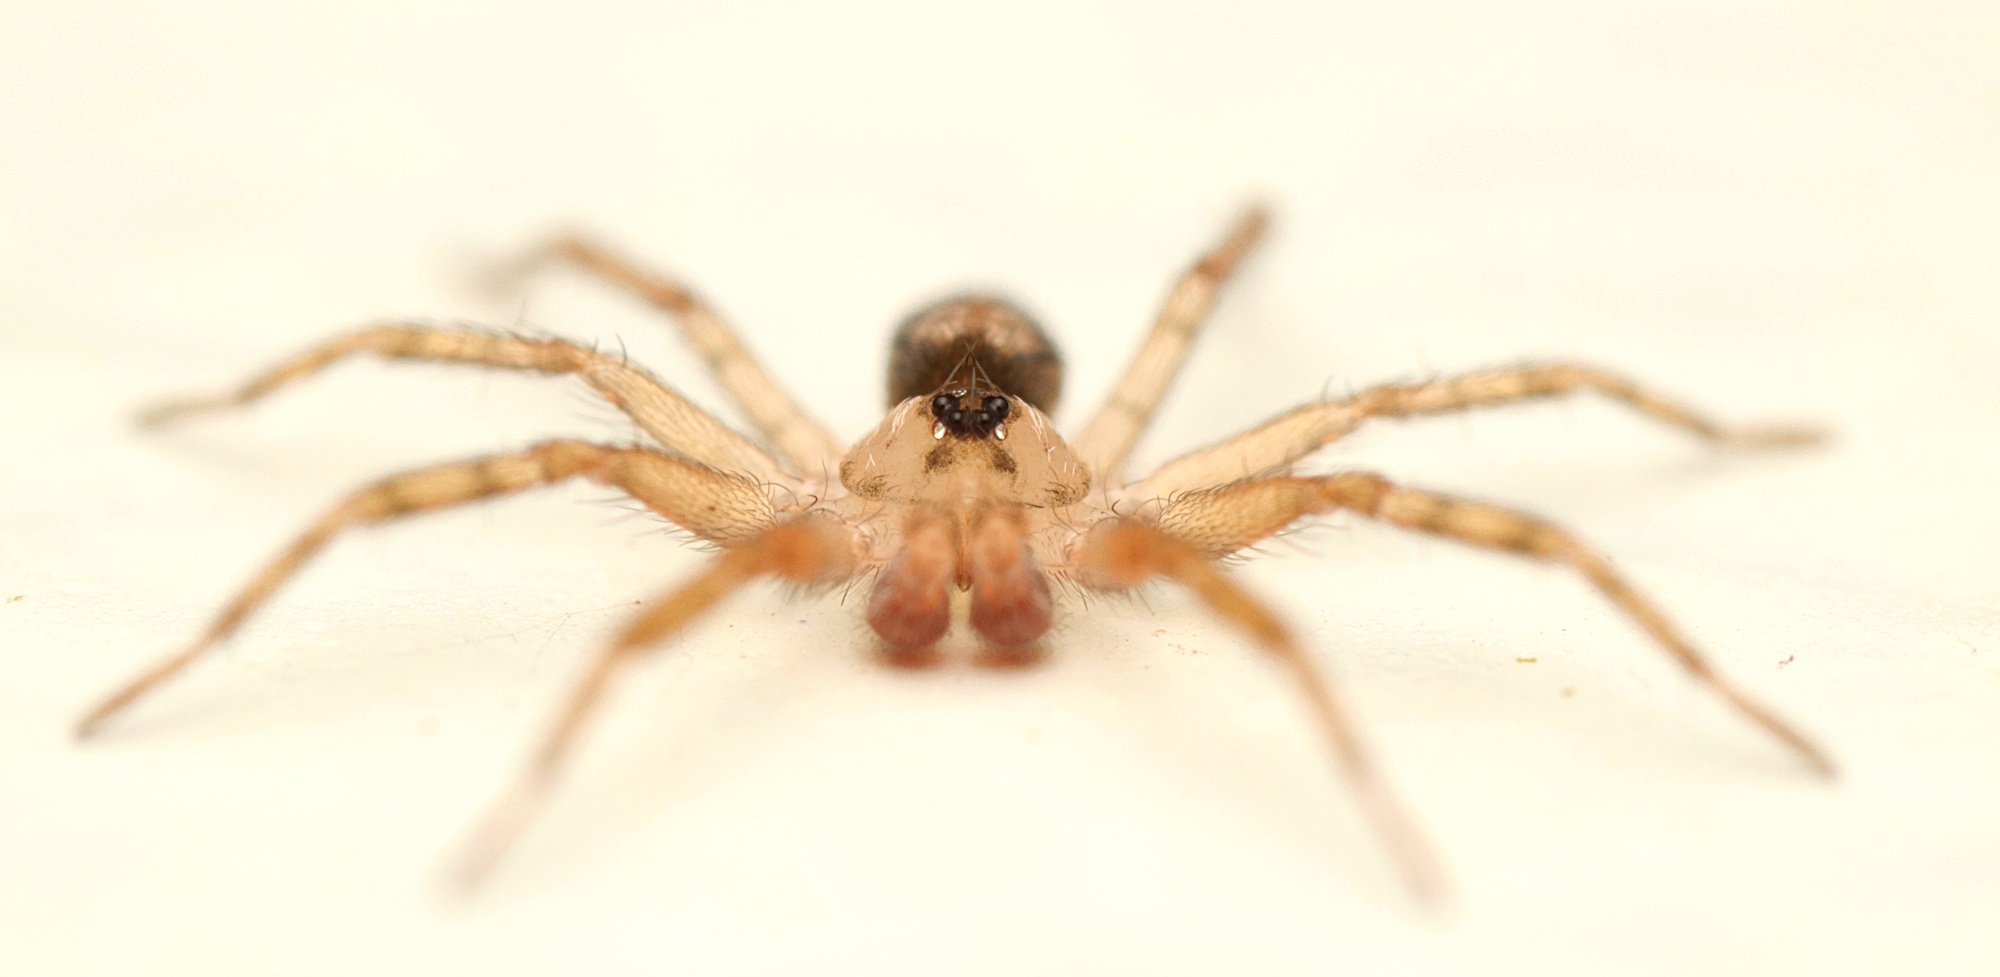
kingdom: Animalia
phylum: Arthropoda
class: Arachnida
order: Araneae
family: Oecobiidae
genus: Oecobius
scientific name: Oecobius navus
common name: Flatmesh weaver
